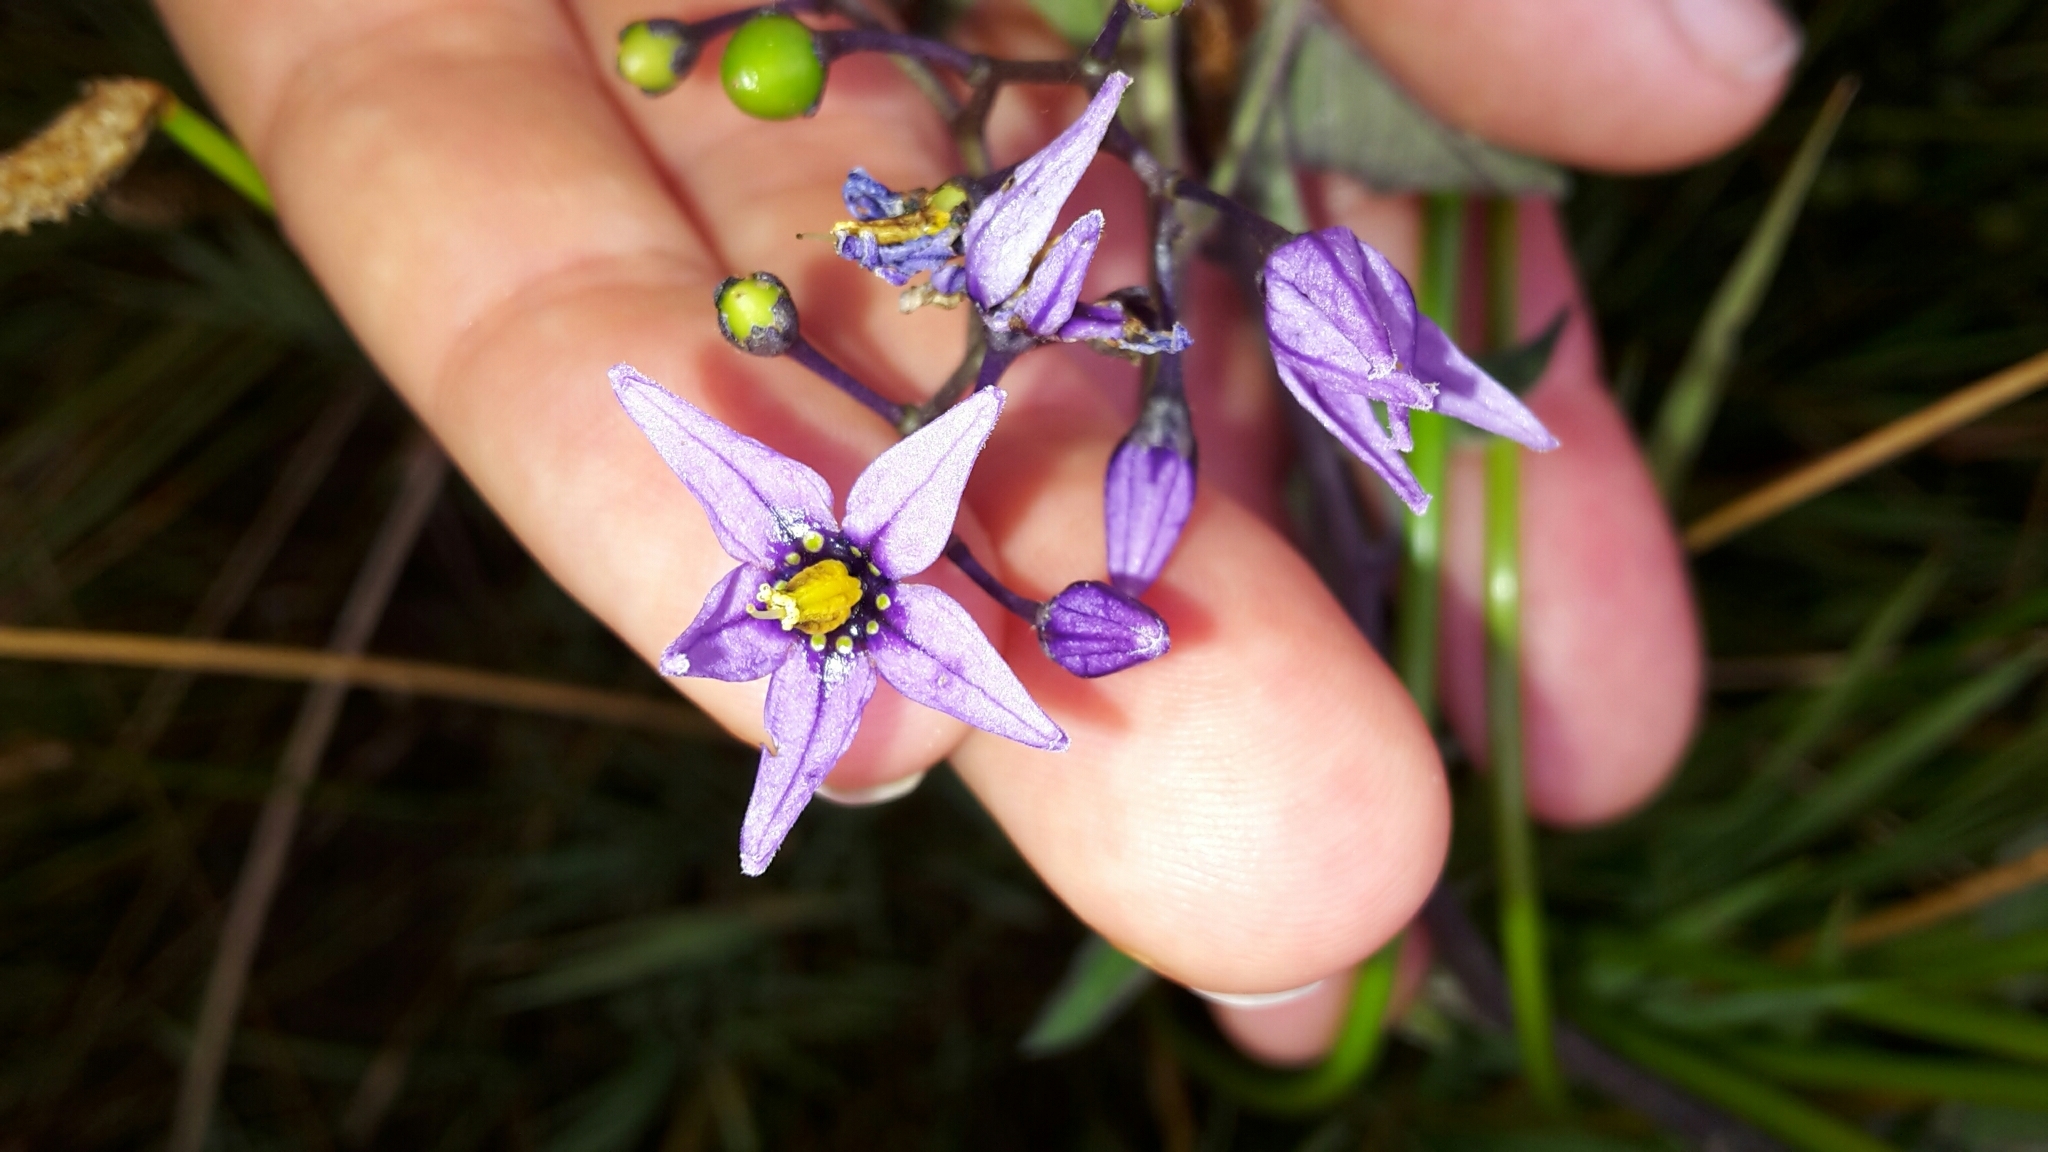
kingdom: Plantae
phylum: Tracheophyta
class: Magnoliopsida
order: Solanales
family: Solanaceae
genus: Solanum
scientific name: Solanum dulcamara
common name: Climbing nightshade
